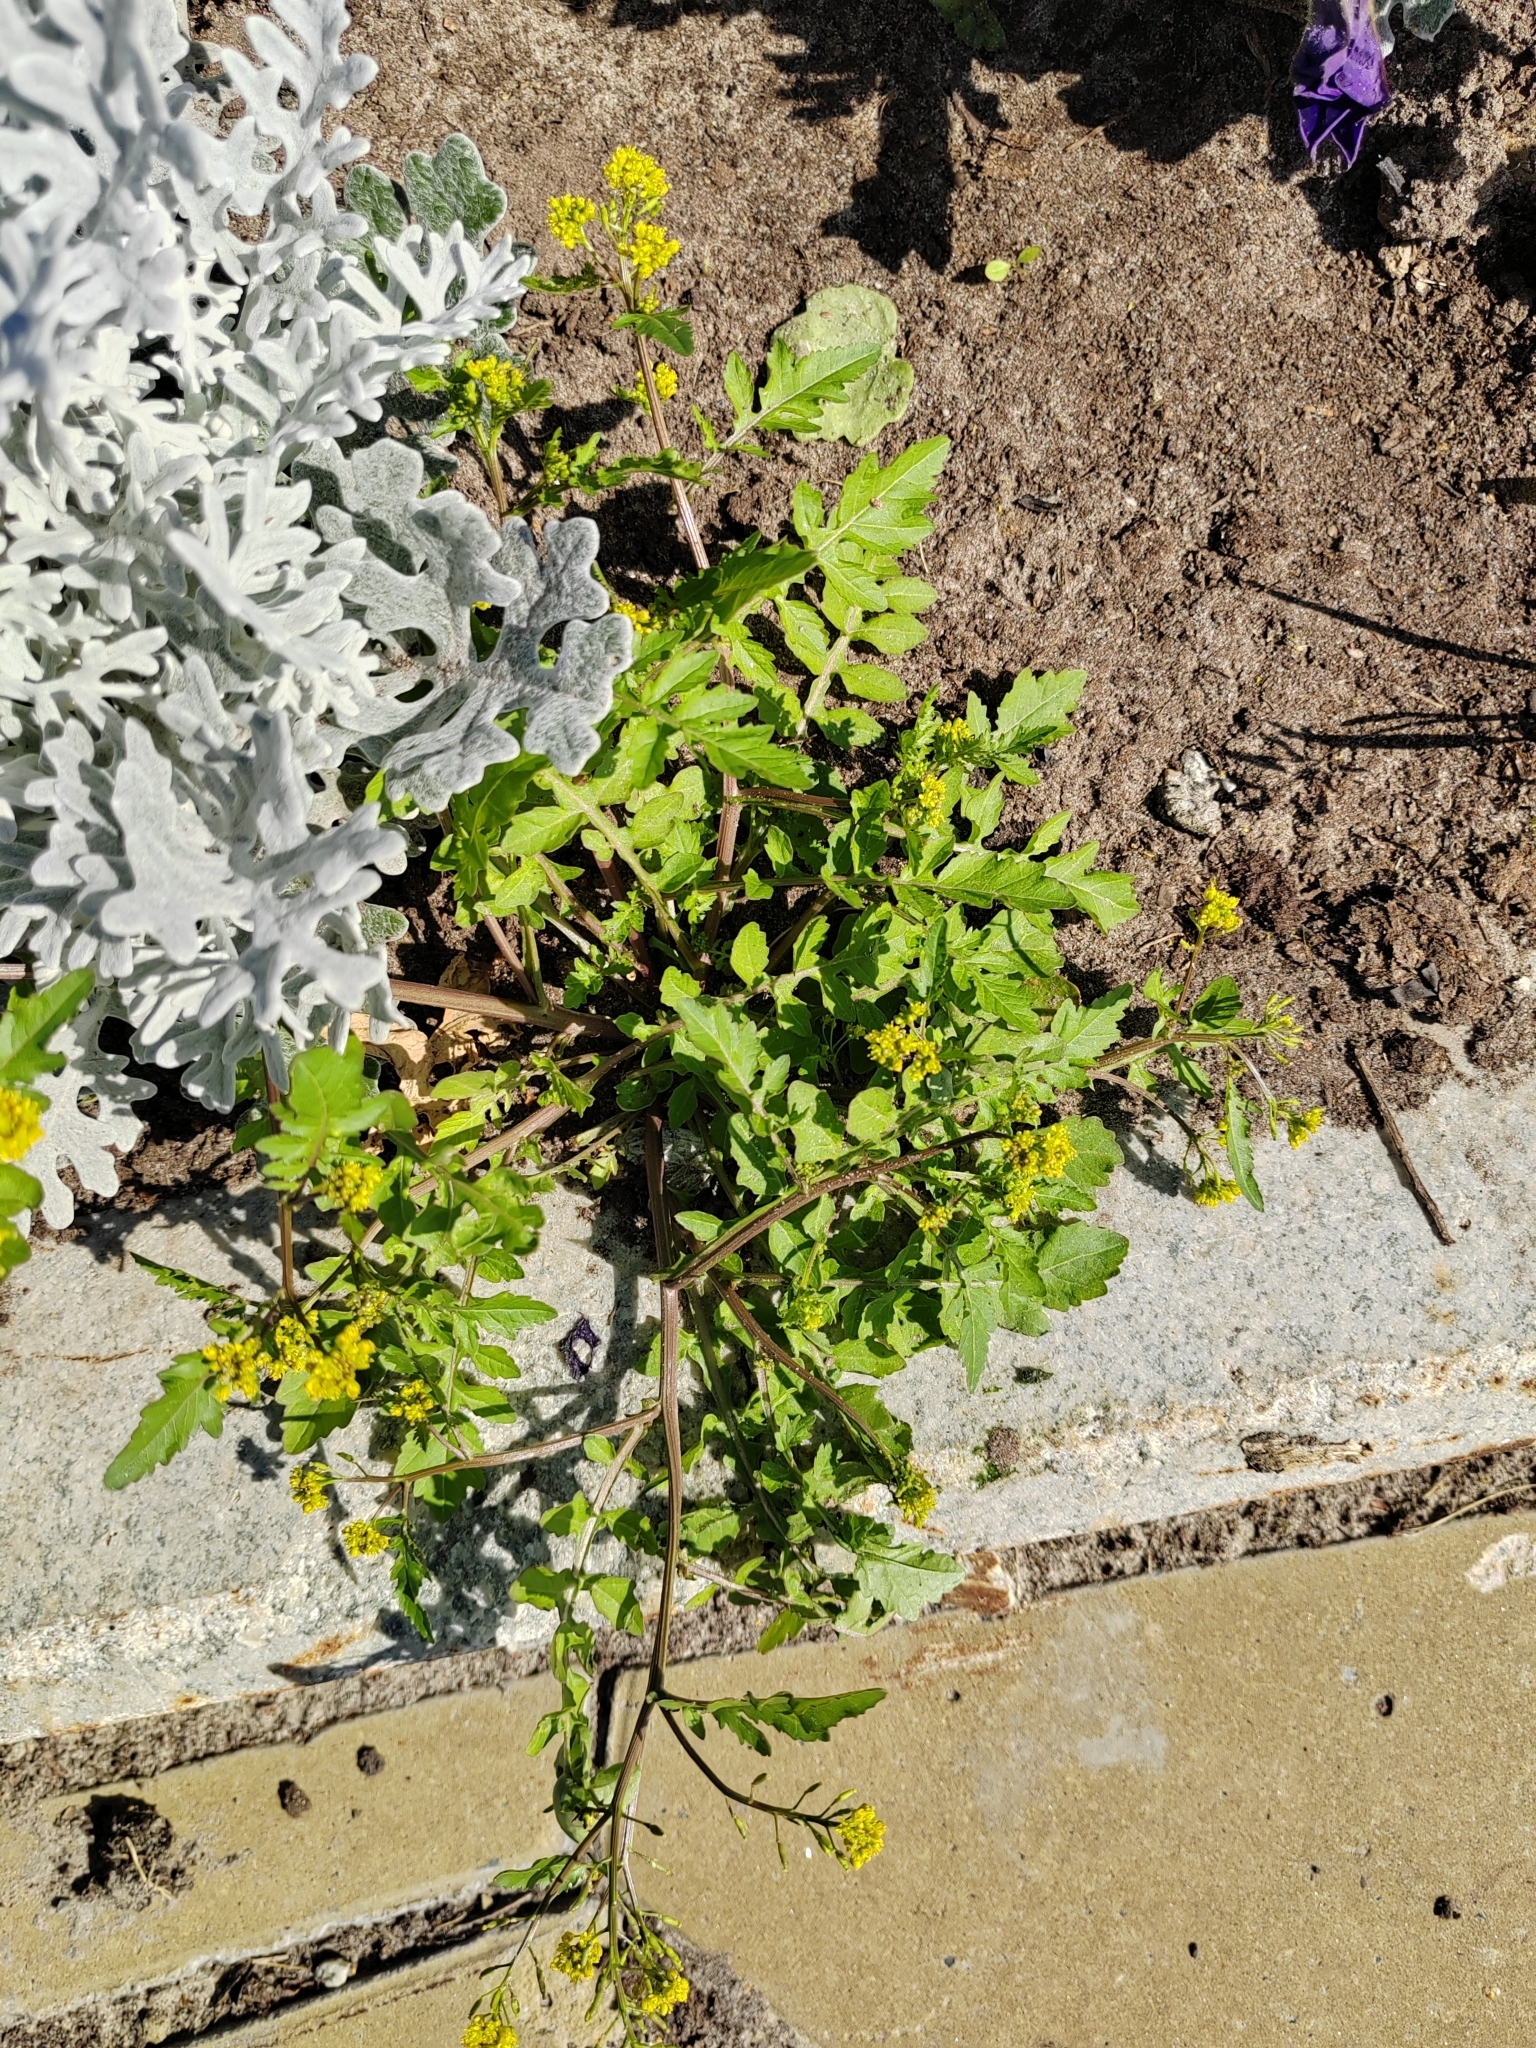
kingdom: Plantae
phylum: Tracheophyta
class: Magnoliopsida
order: Brassicales
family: Brassicaceae
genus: Rorippa
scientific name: Rorippa palustris
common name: Marsh yellow-cress
